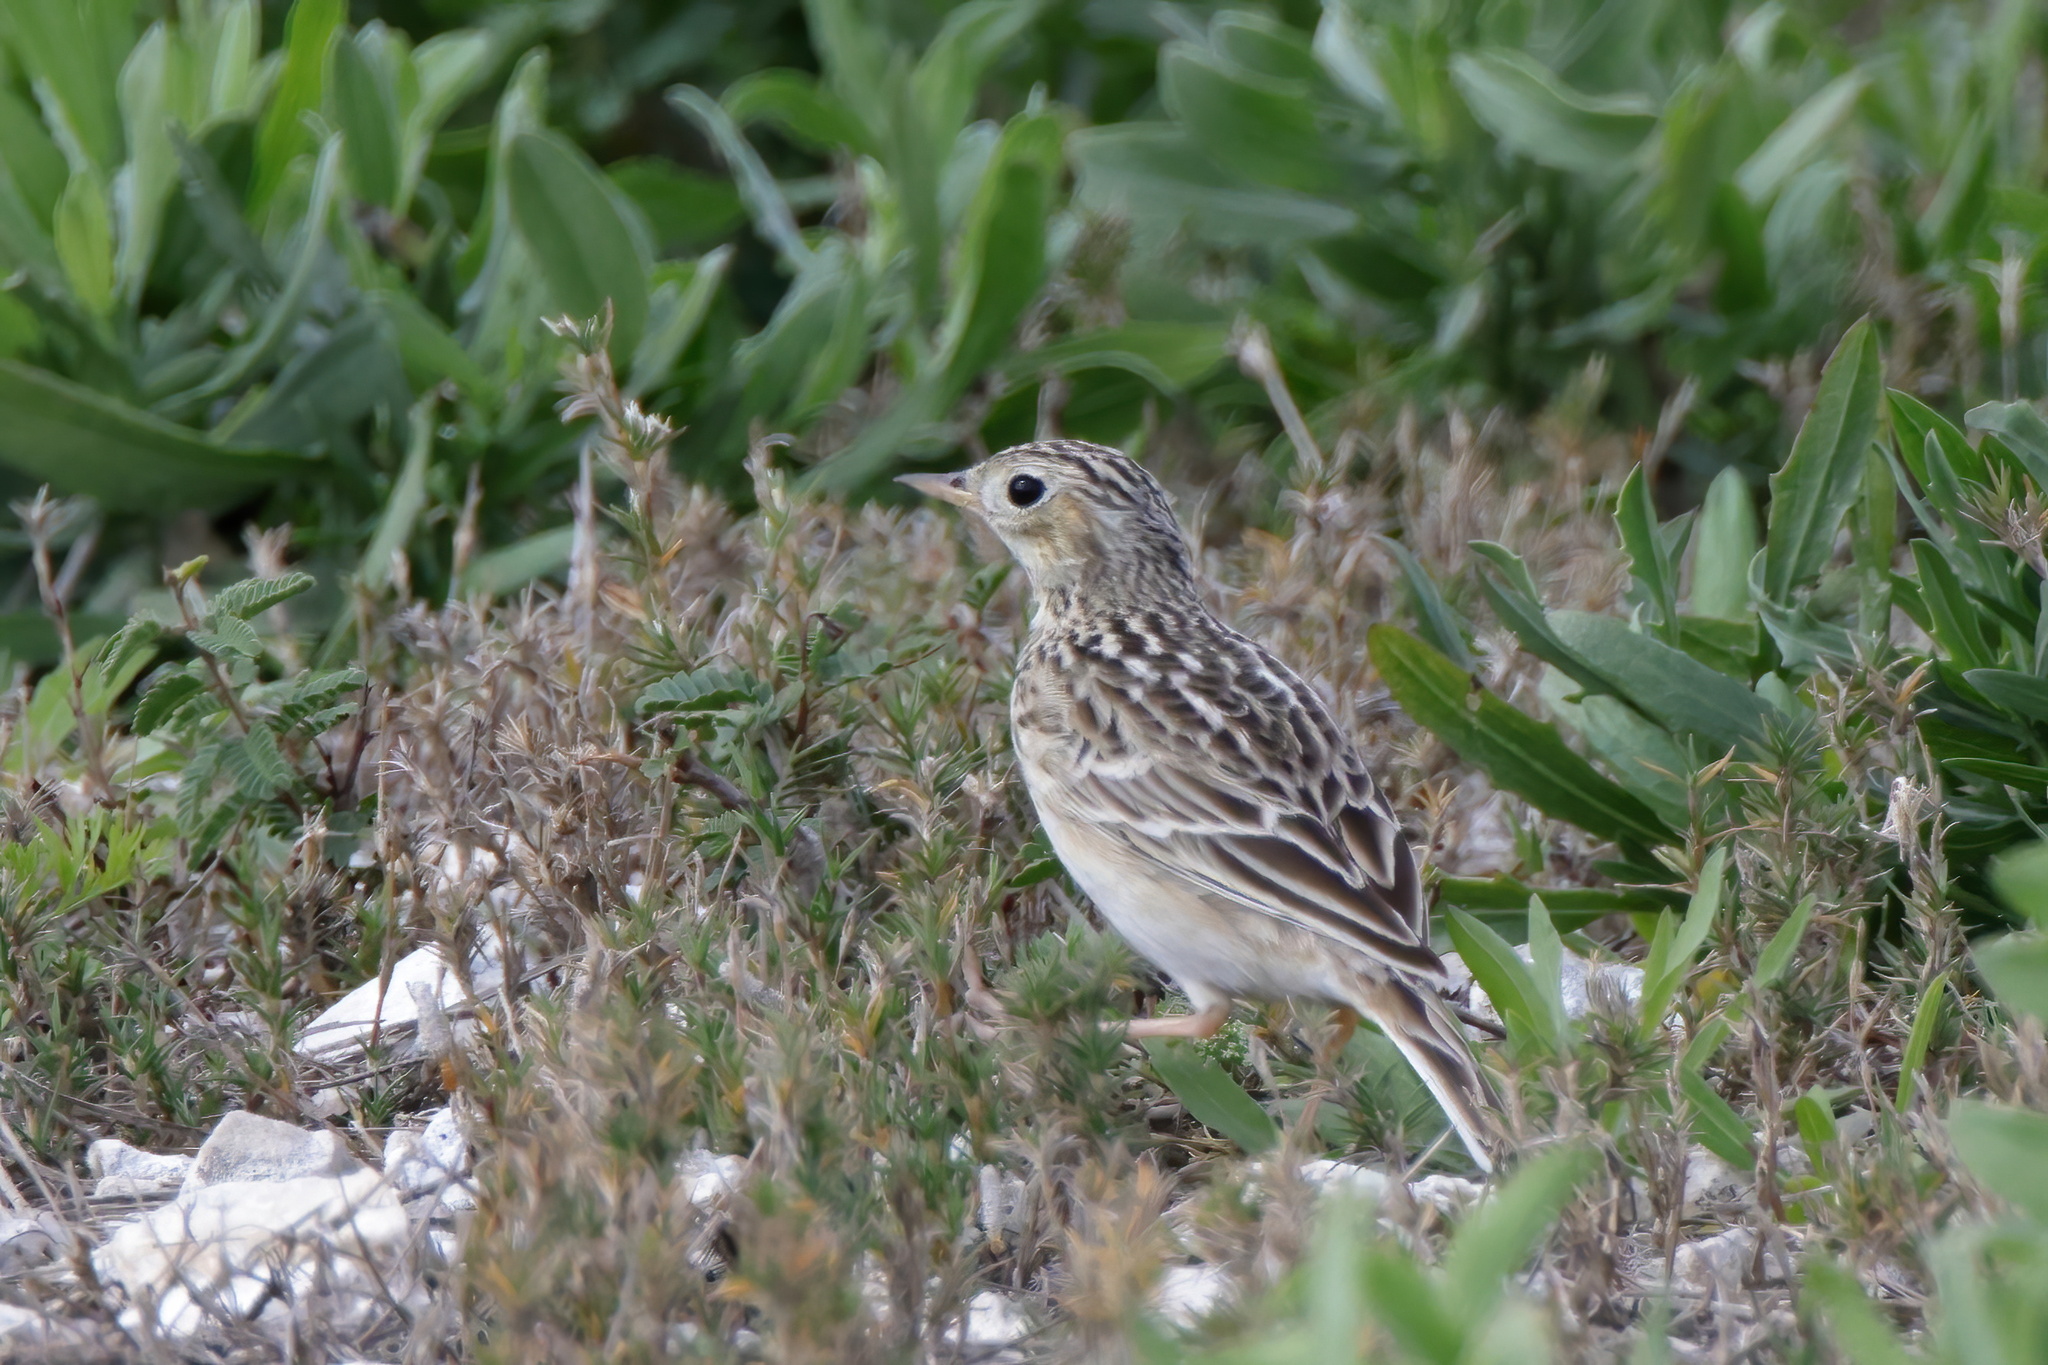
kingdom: Animalia
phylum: Chordata
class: Aves
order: Passeriformes
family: Motacillidae
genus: Anthus
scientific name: Anthus spragueii
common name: Sprague's pipit
